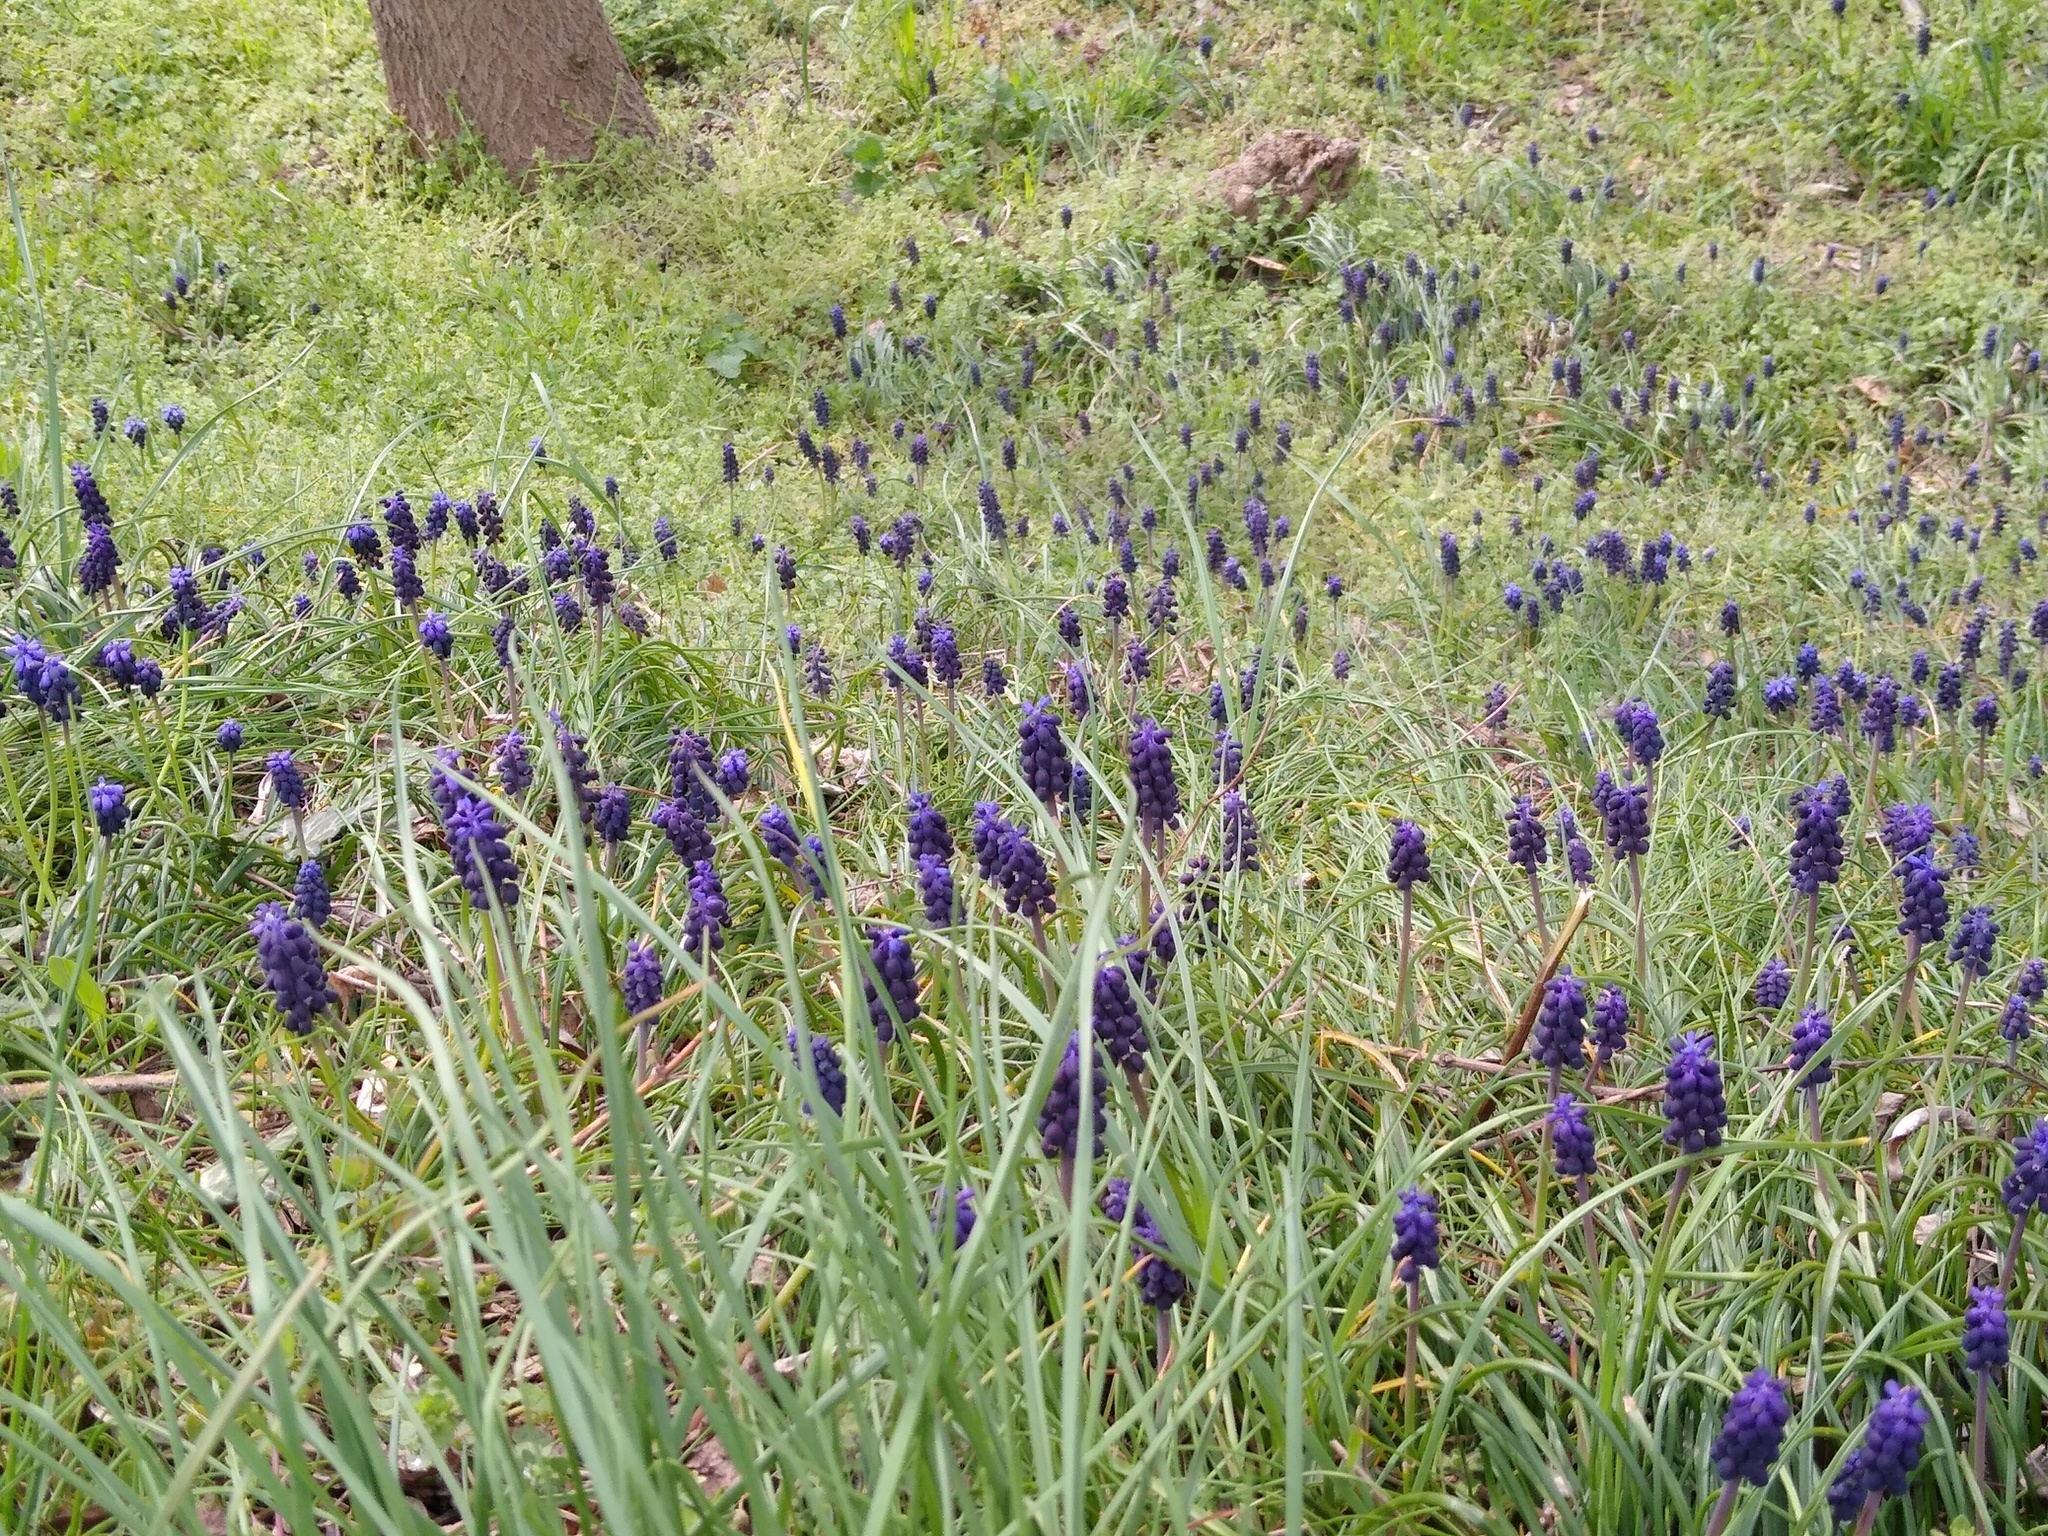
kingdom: Plantae
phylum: Tracheophyta
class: Liliopsida
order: Asparagales
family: Asparagaceae
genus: Muscari
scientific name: Muscari neglectum
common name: Grape-hyacinth
